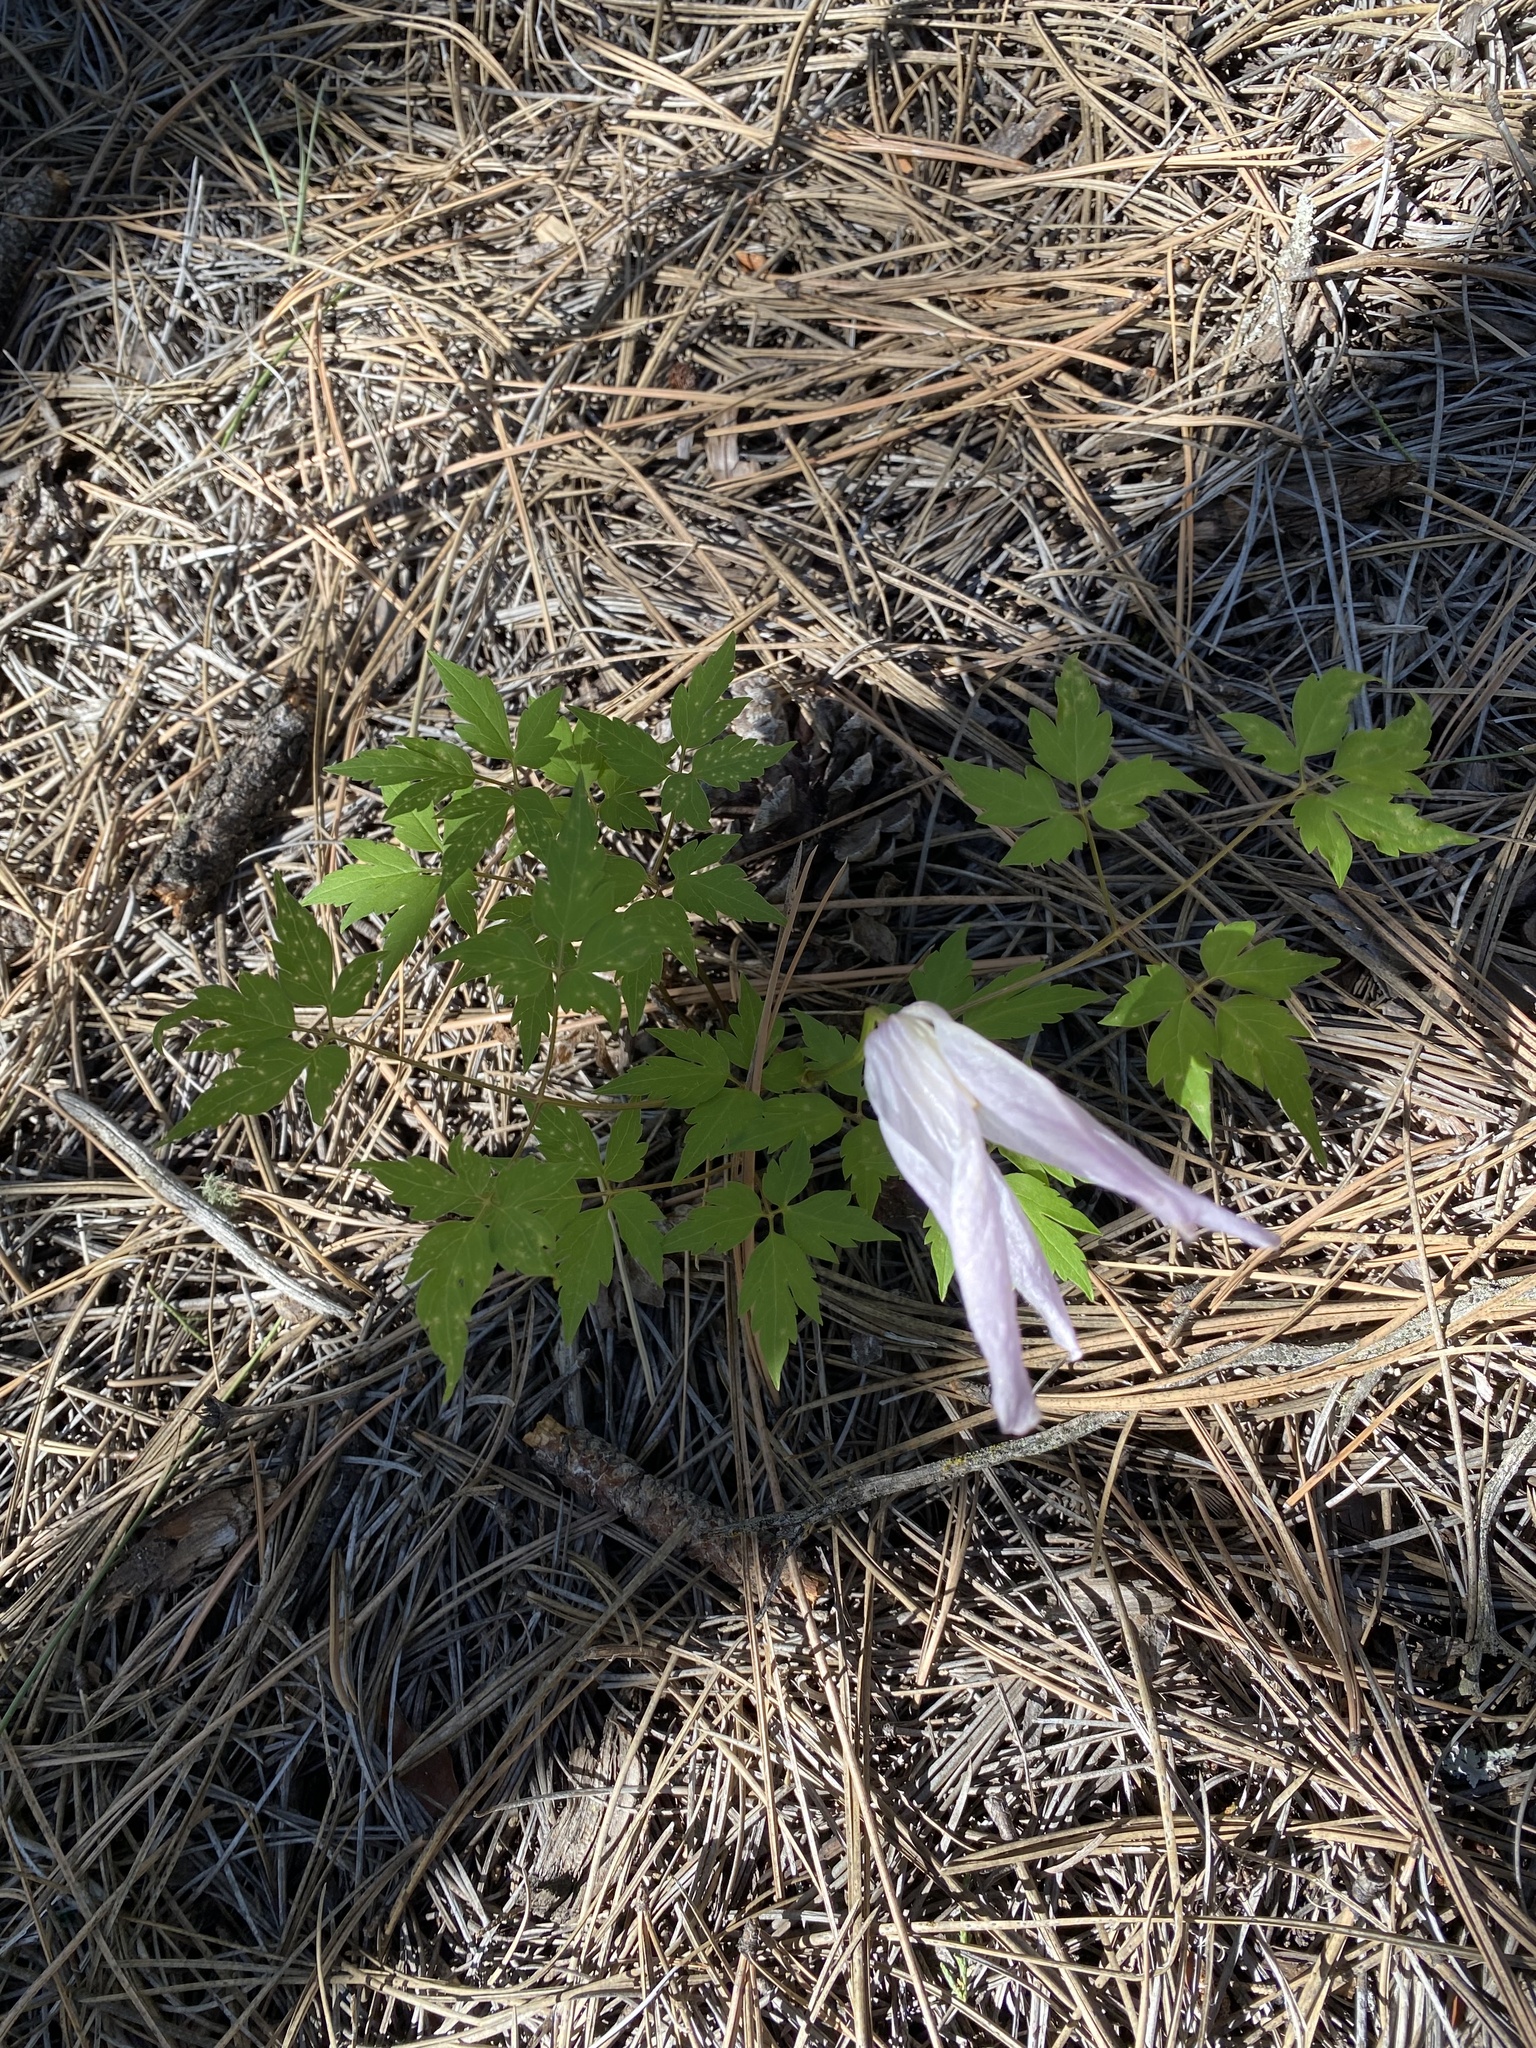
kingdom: Plantae
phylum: Tracheophyta
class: Magnoliopsida
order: Ranunculales
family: Ranunculaceae
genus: Clematis
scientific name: Clematis columbiana
